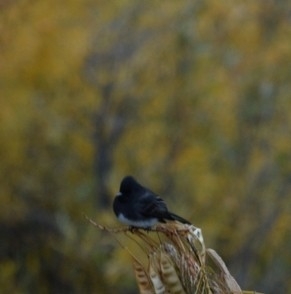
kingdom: Animalia
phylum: Chordata
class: Aves
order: Passeriformes
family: Tyrannidae
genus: Sayornis
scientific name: Sayornis nigricans
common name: Black phoebe
